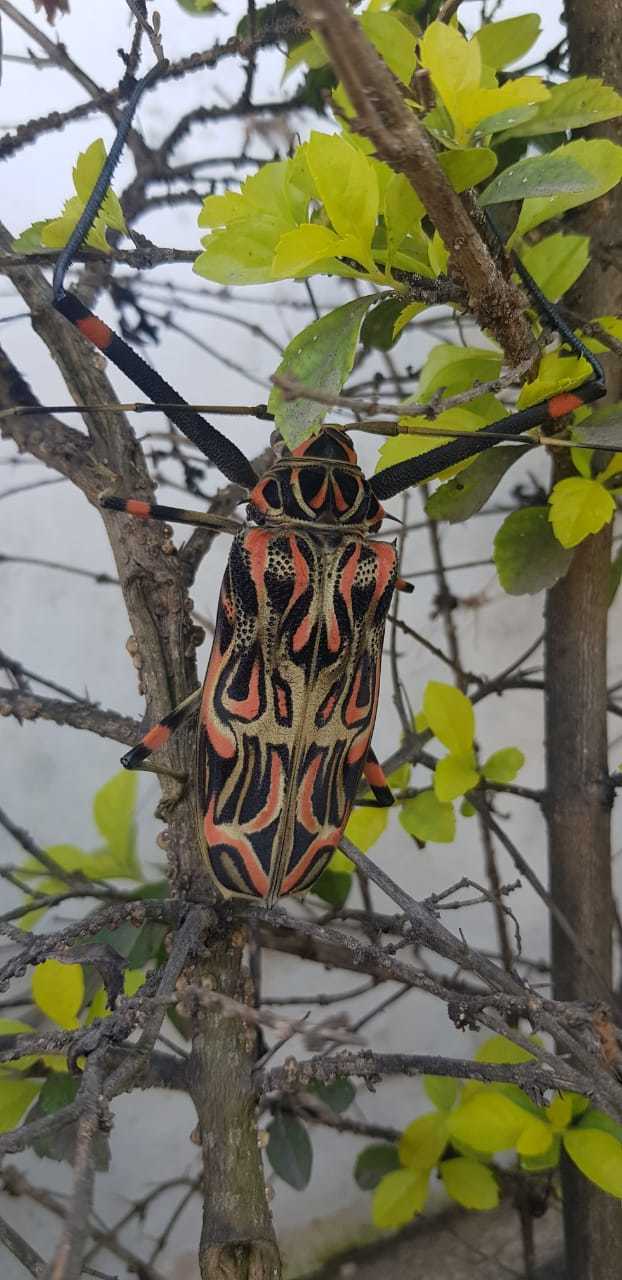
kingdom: Animalia
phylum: Arthropoda
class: Insecta
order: Coleoptera
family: Cerambycidae
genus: Acrocinus
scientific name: Acrocinus longimanus
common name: Arlequin
